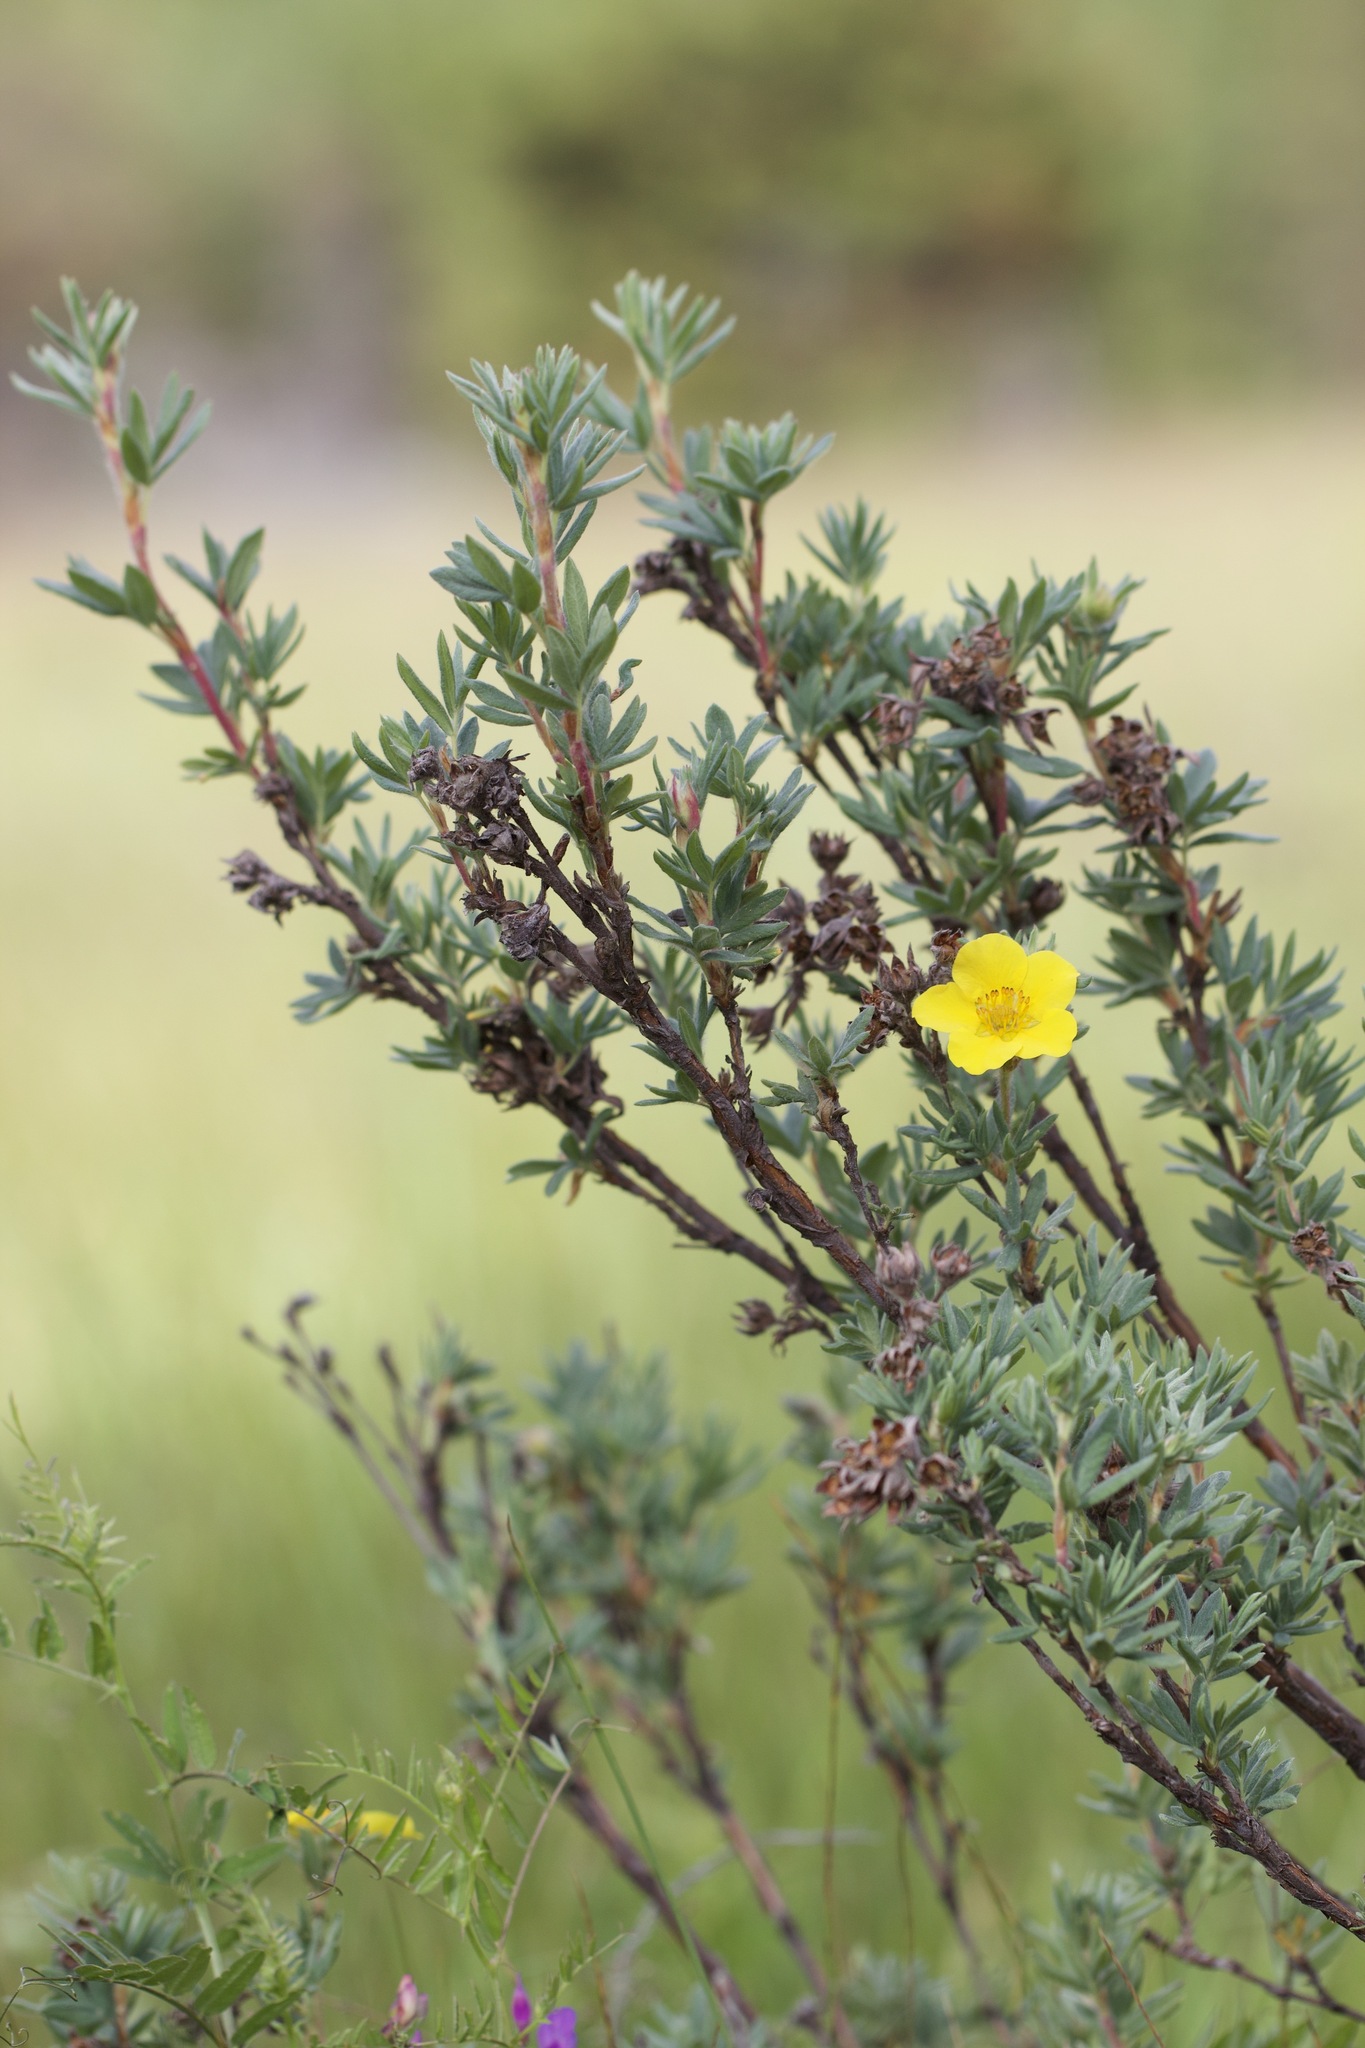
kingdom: Plantae
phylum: Tracheophyta
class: Magnoliopsida
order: Rosales
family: Rosaceae
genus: Dasiphora
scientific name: Dasiphora fruticosa
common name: Shrubby cinquefoil
